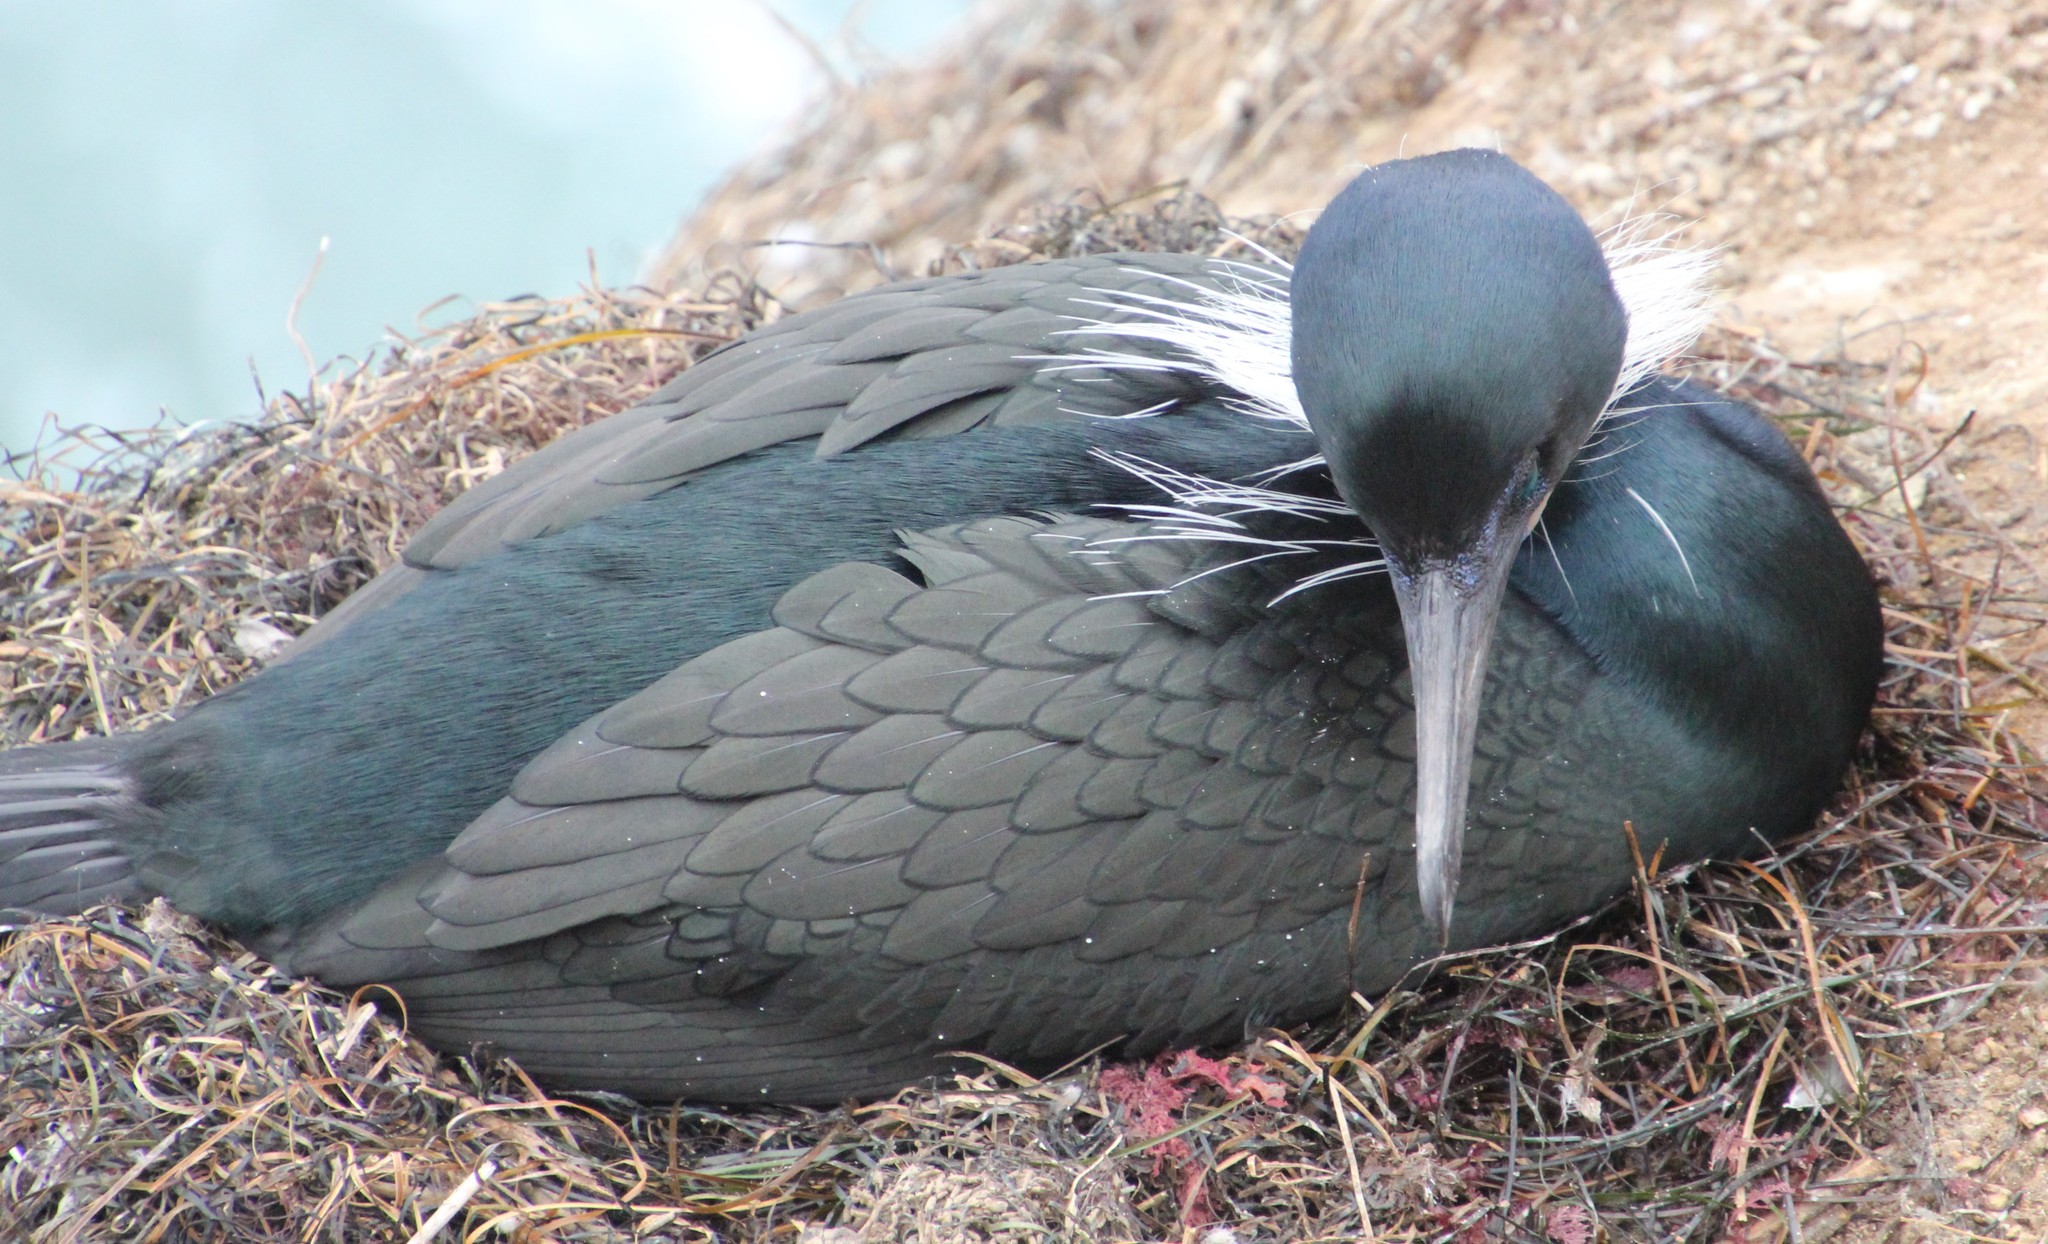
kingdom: Animalia
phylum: Chordata
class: Aves
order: Suliformes
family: Phalacrocoracidae
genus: Urile
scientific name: Urile penicillatus
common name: Brandt's cormorant
